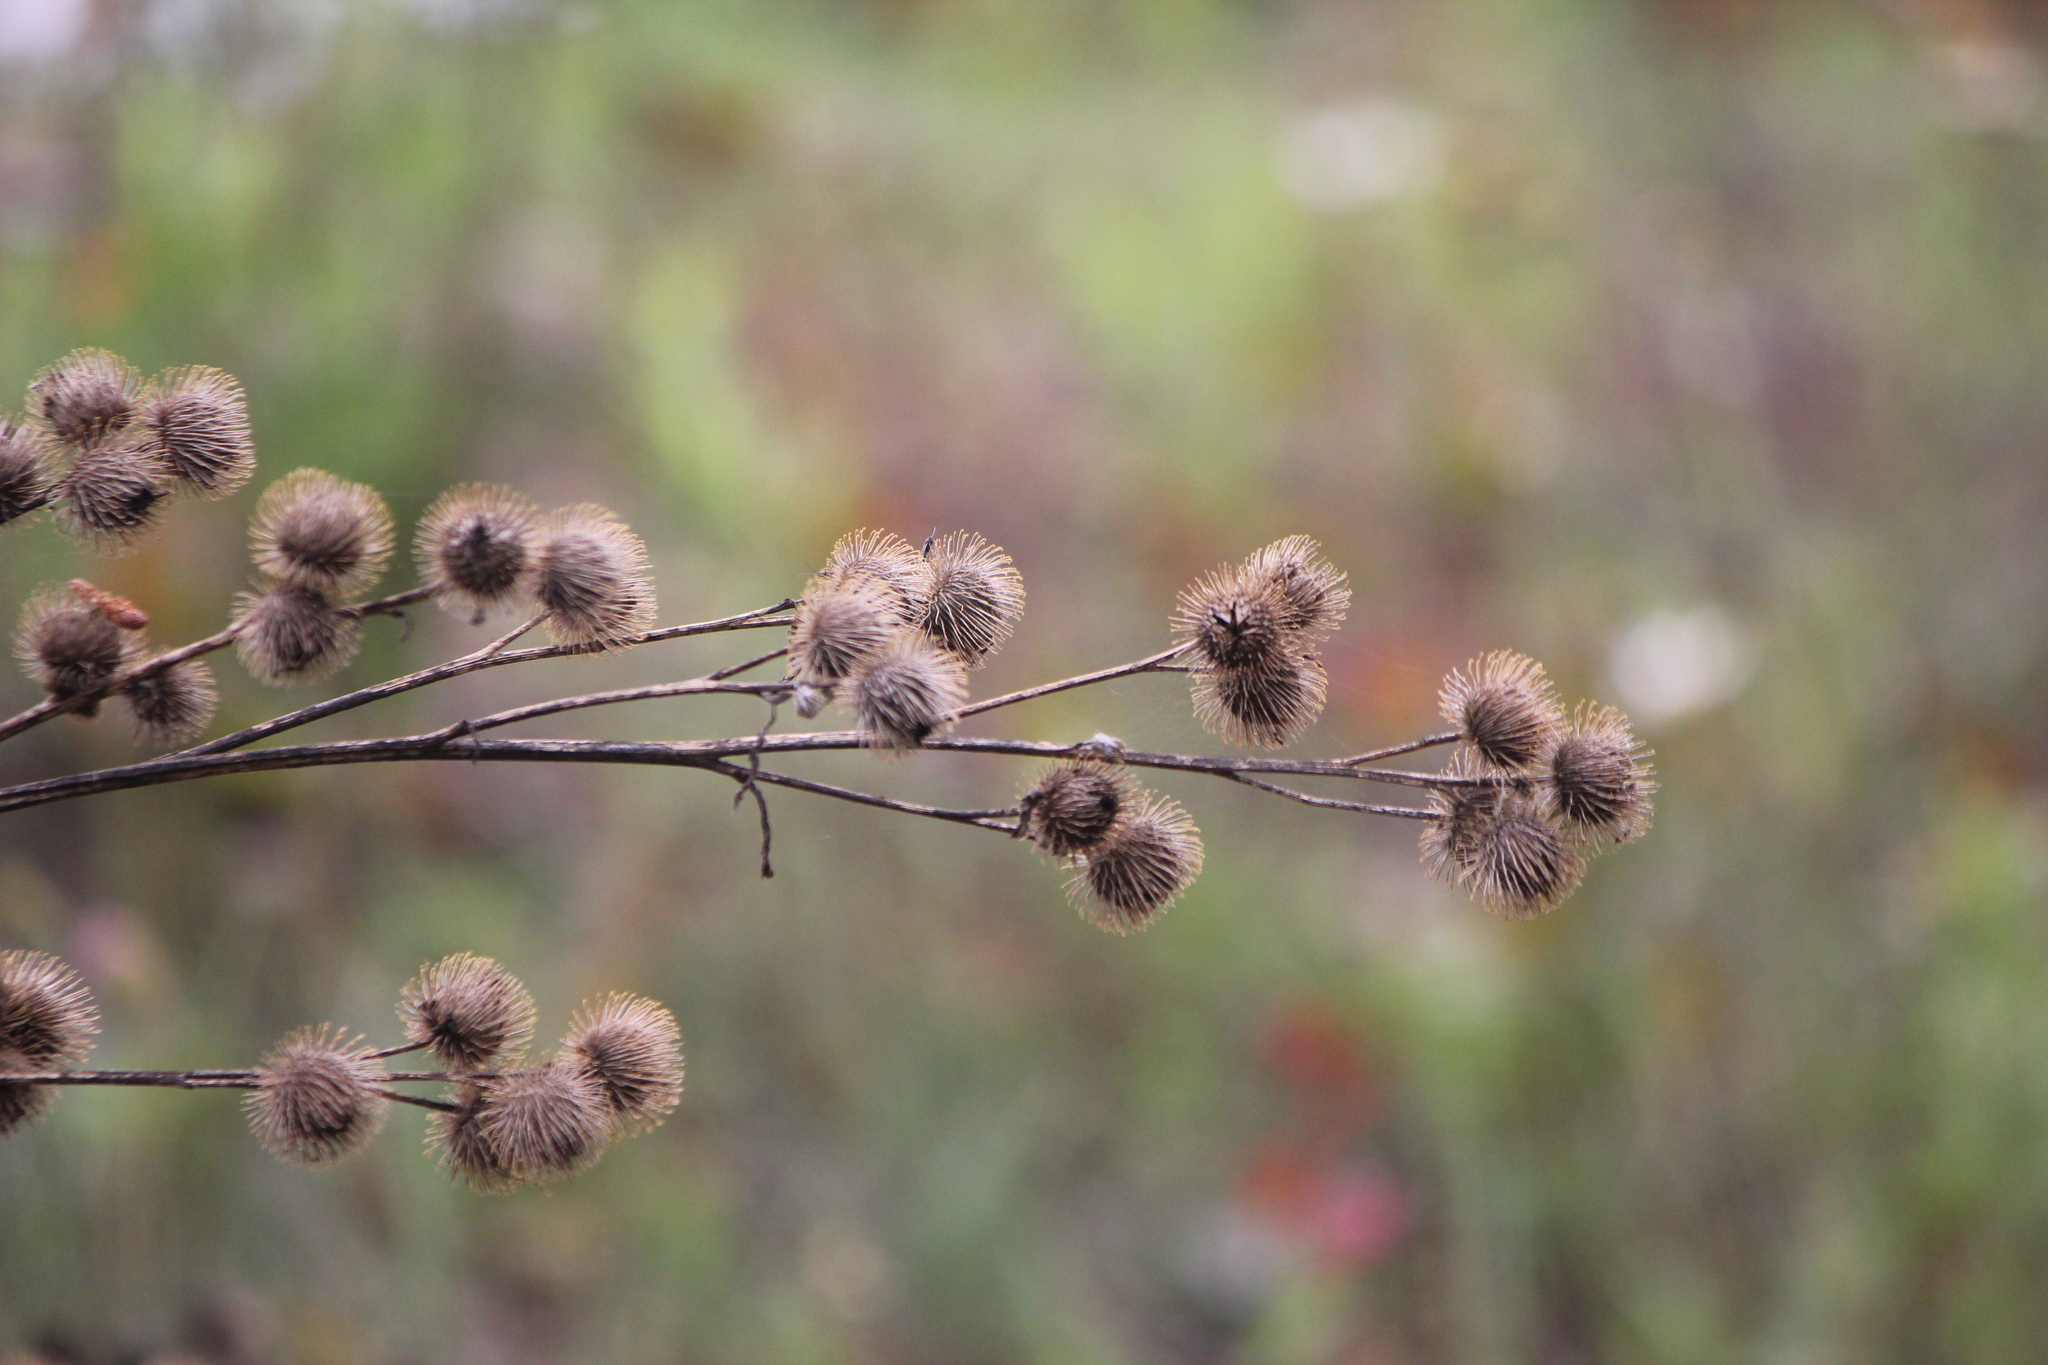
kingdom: Plantae
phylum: Tracheophyta
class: Magnoliopsida
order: Asterales
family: Asteraceae
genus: Arctium
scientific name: Arctium lappa
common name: Greater burdock
